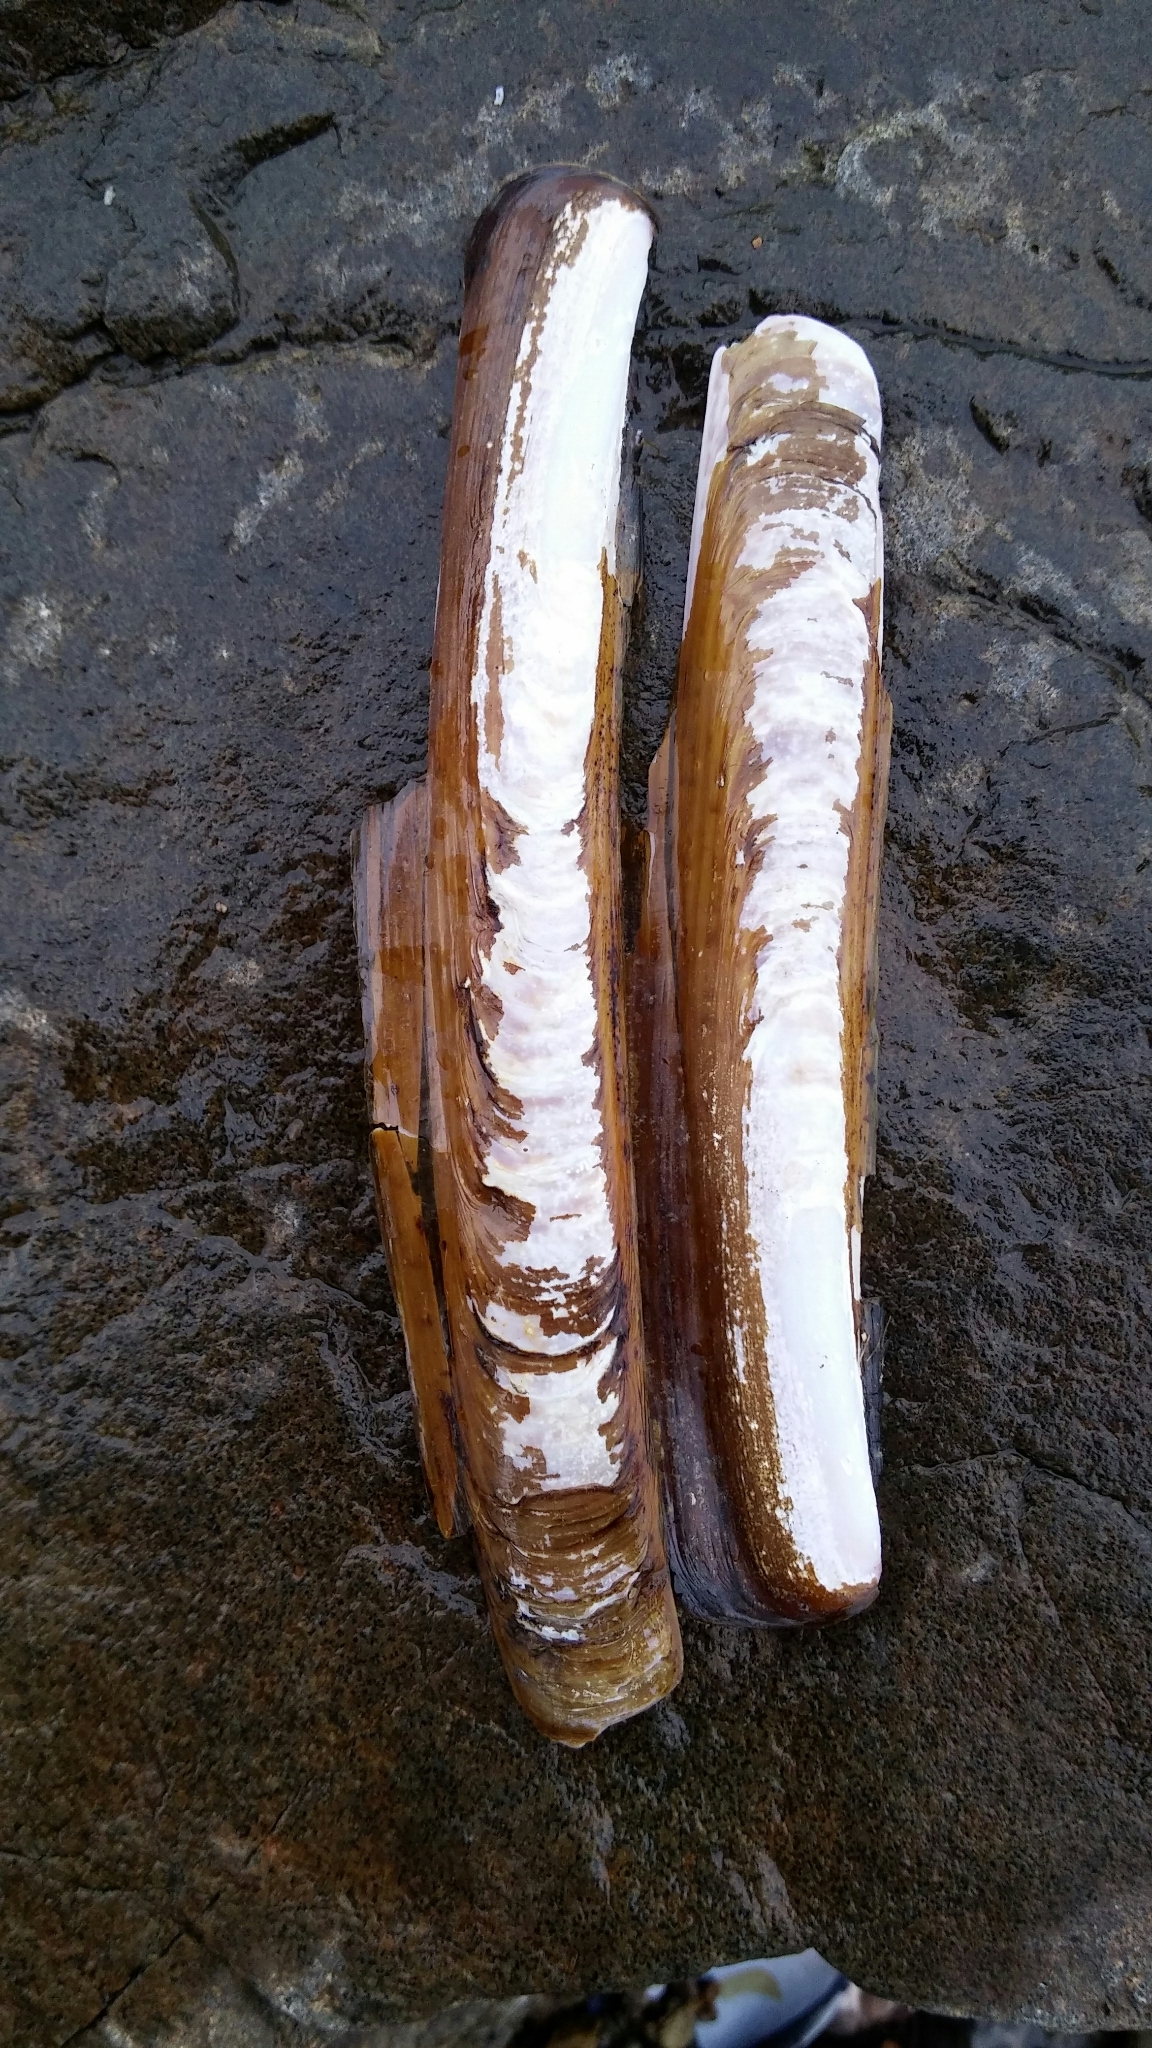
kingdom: Animalia
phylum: Mollusca
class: Bivalvia
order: Adapedonta
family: Pharidae
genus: Ensis
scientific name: Ensis
